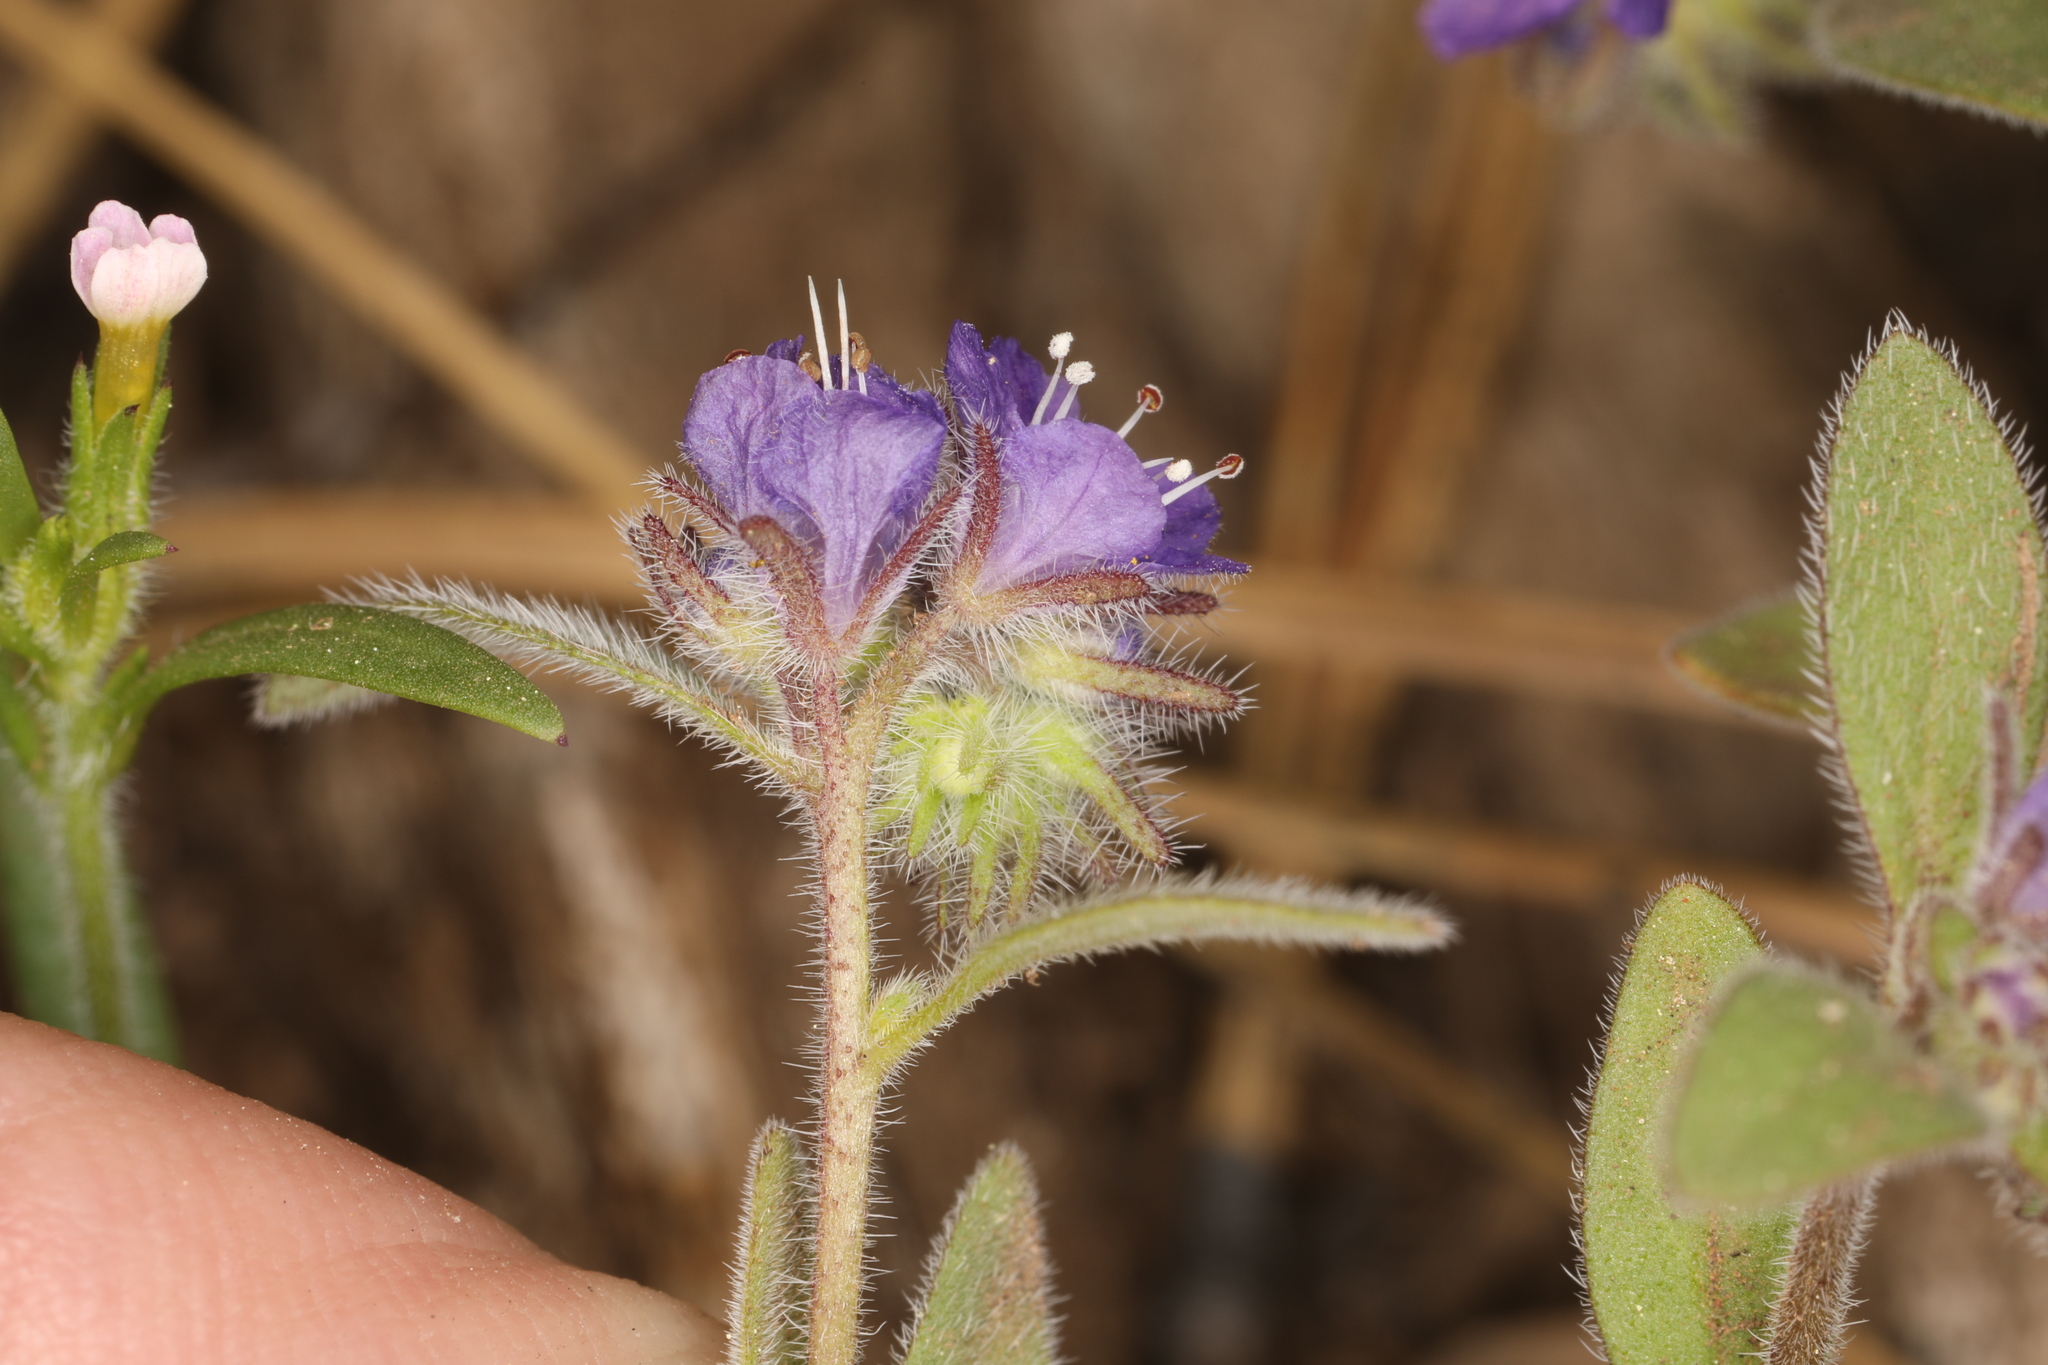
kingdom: Plantae
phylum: Tracheophyta
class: Magnoliopsida
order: Boraginales
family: Hydrophyllaceae
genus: Phacelia
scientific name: Phacelia humilis
